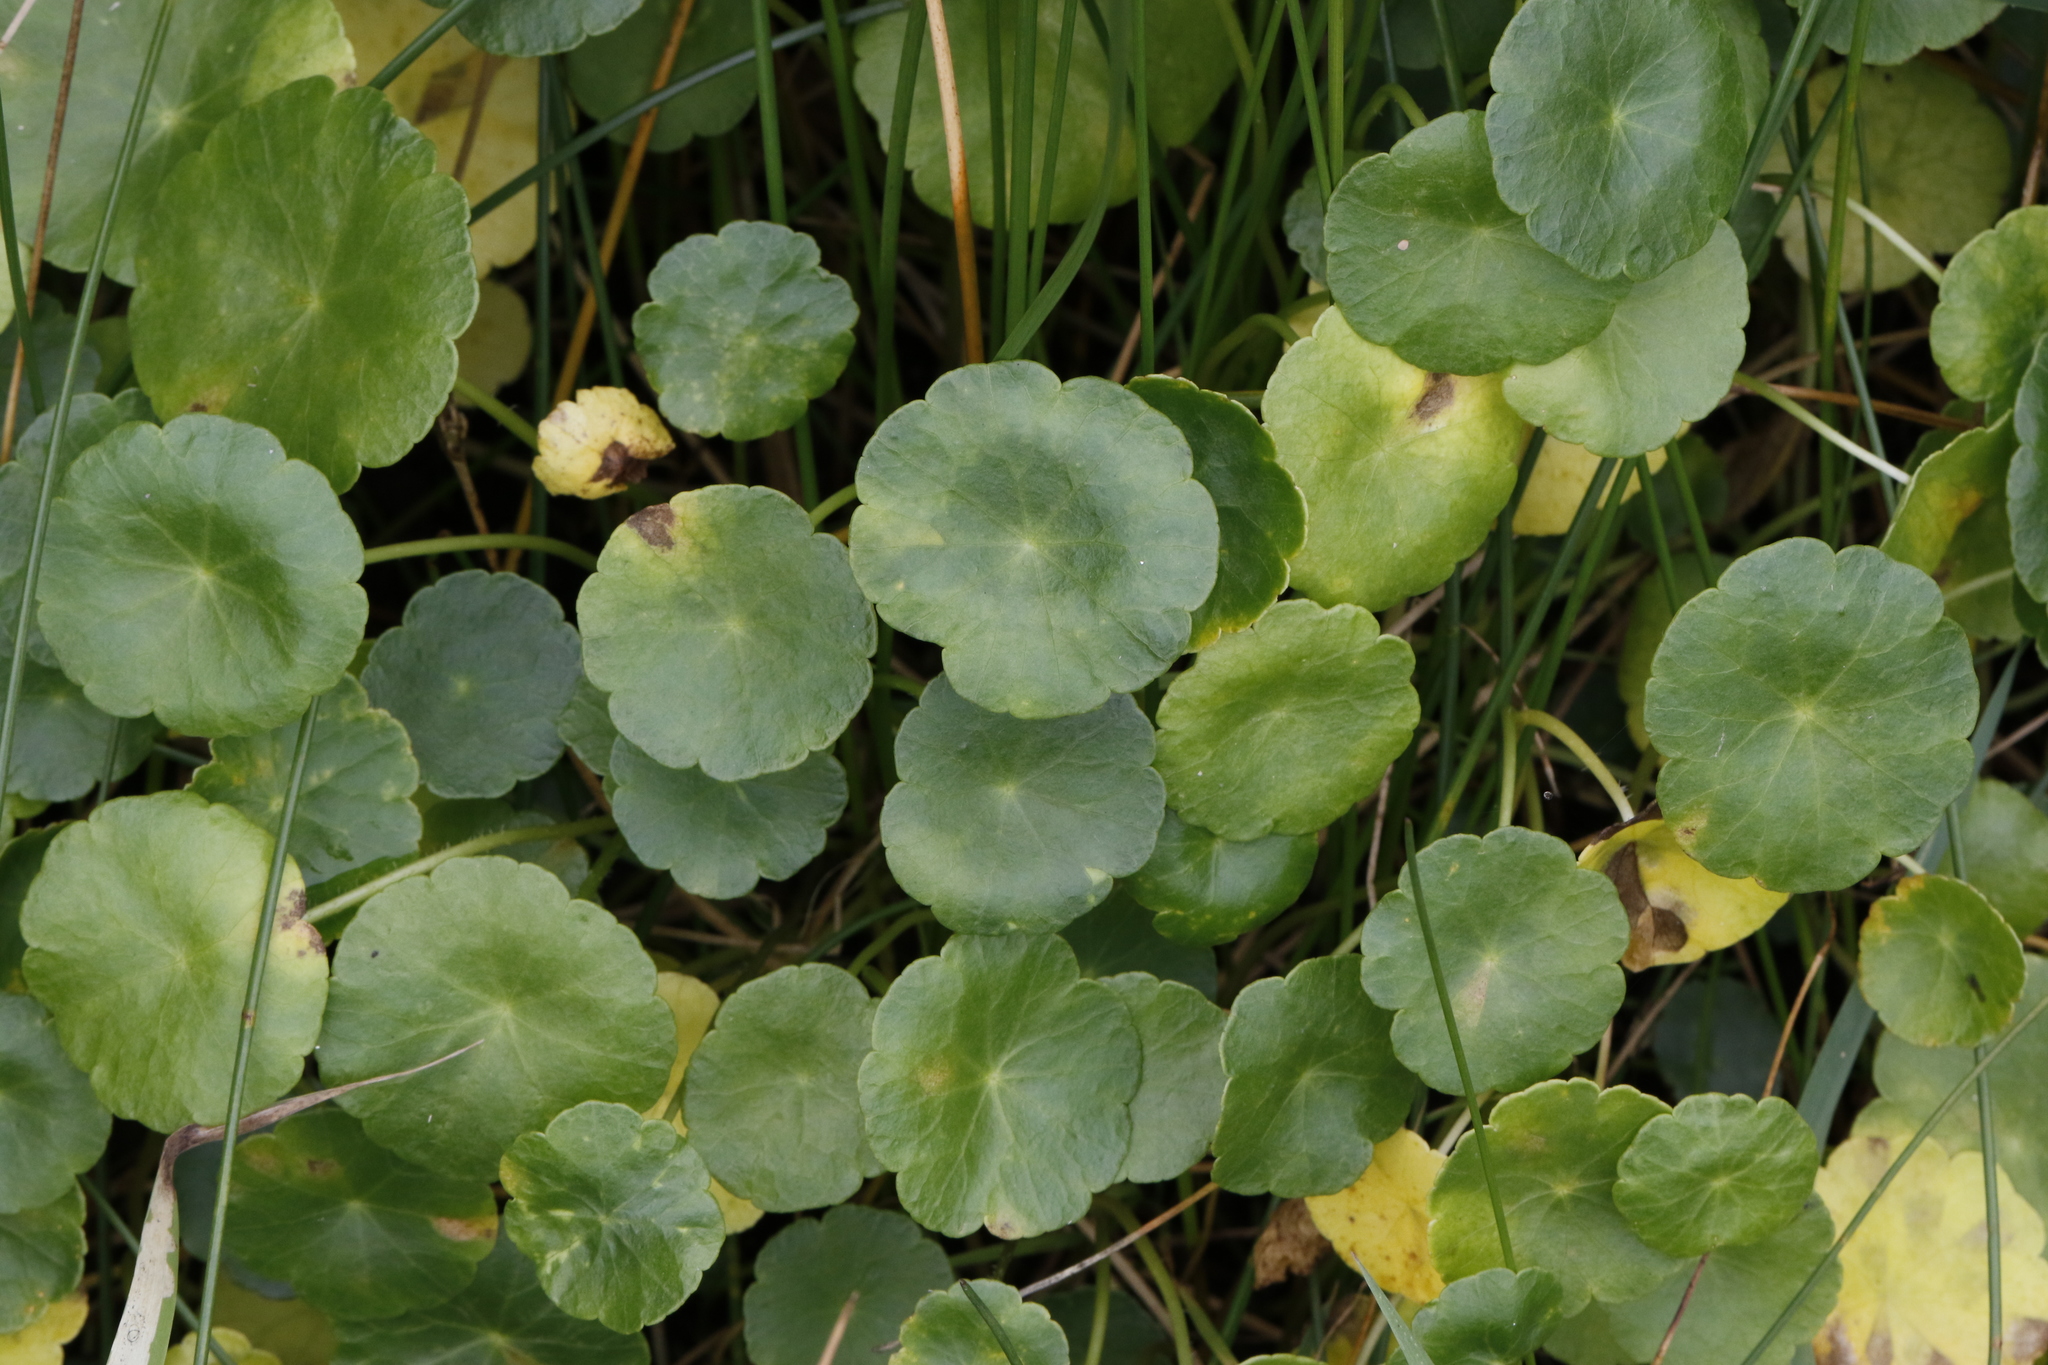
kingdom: Plantae
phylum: Tracheophyta
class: Magnoliopsida
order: Apiales
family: Araliaceae
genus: Hydrocotyle
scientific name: Hydrocotyle vulgaris
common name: Marsh pennywort
